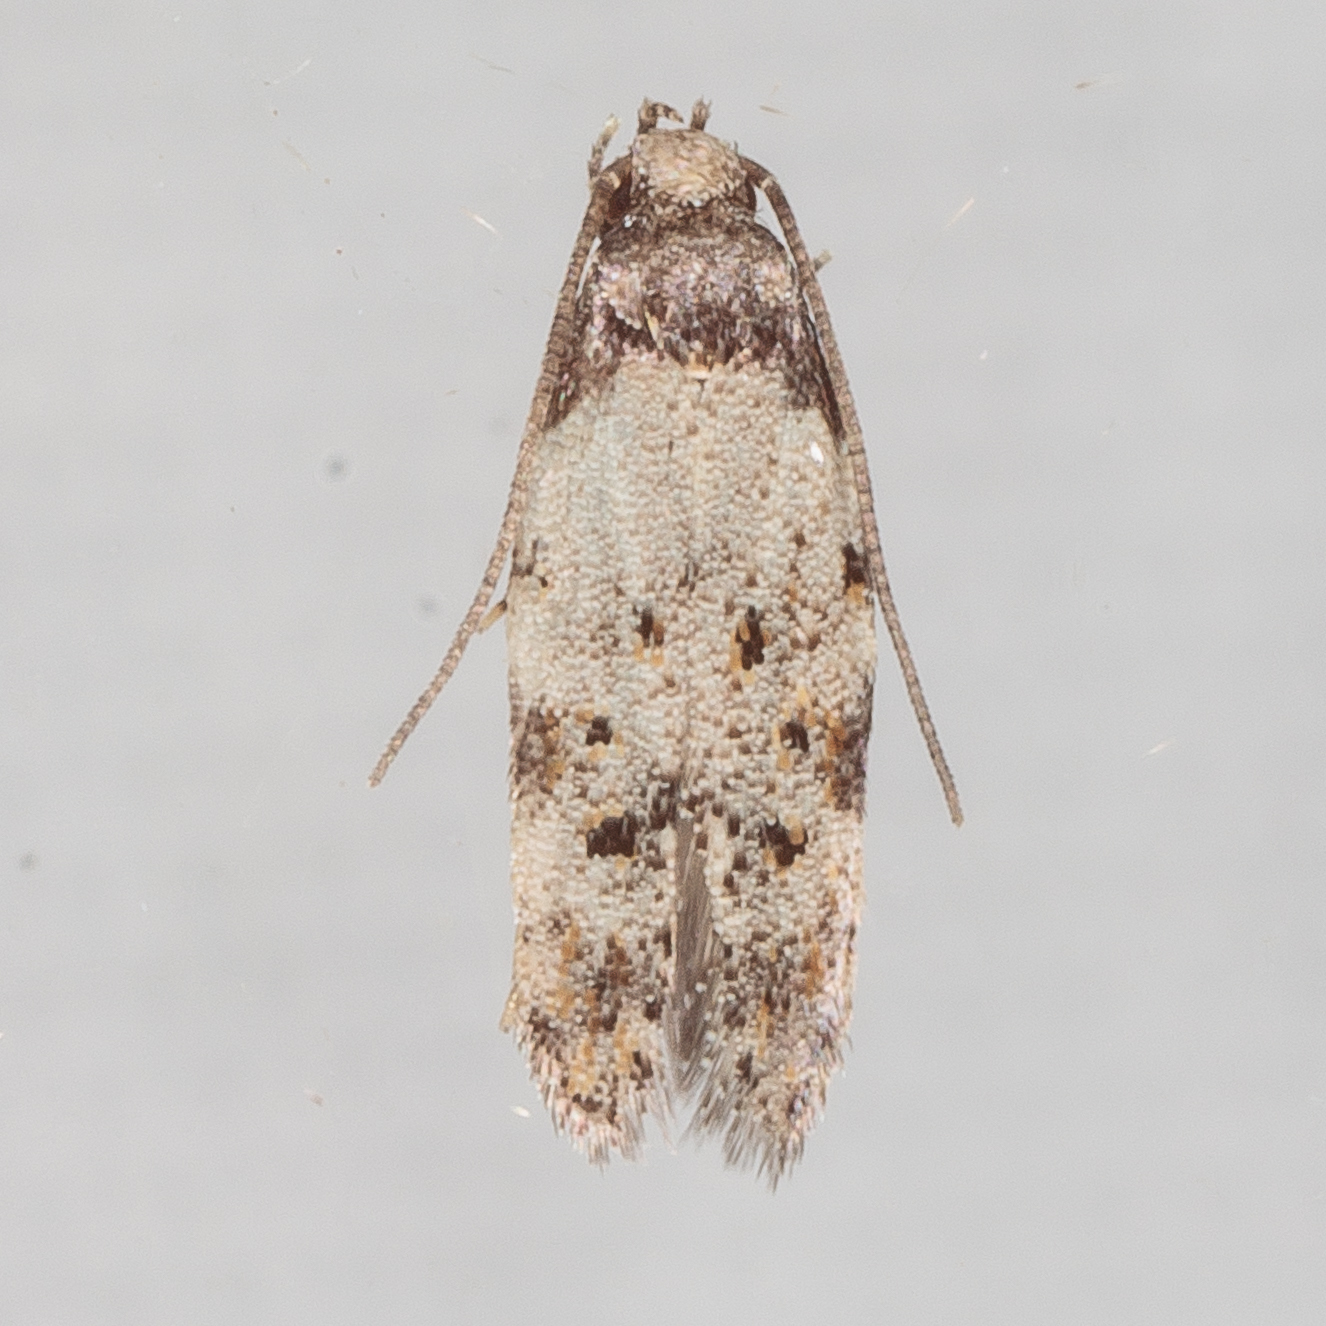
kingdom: Animalia
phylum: Arthropoda
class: Insecta
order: Lepidoptera
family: Autostichidae
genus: Taygete
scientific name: Taygete attributella
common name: Triangle-marked twirler moth
